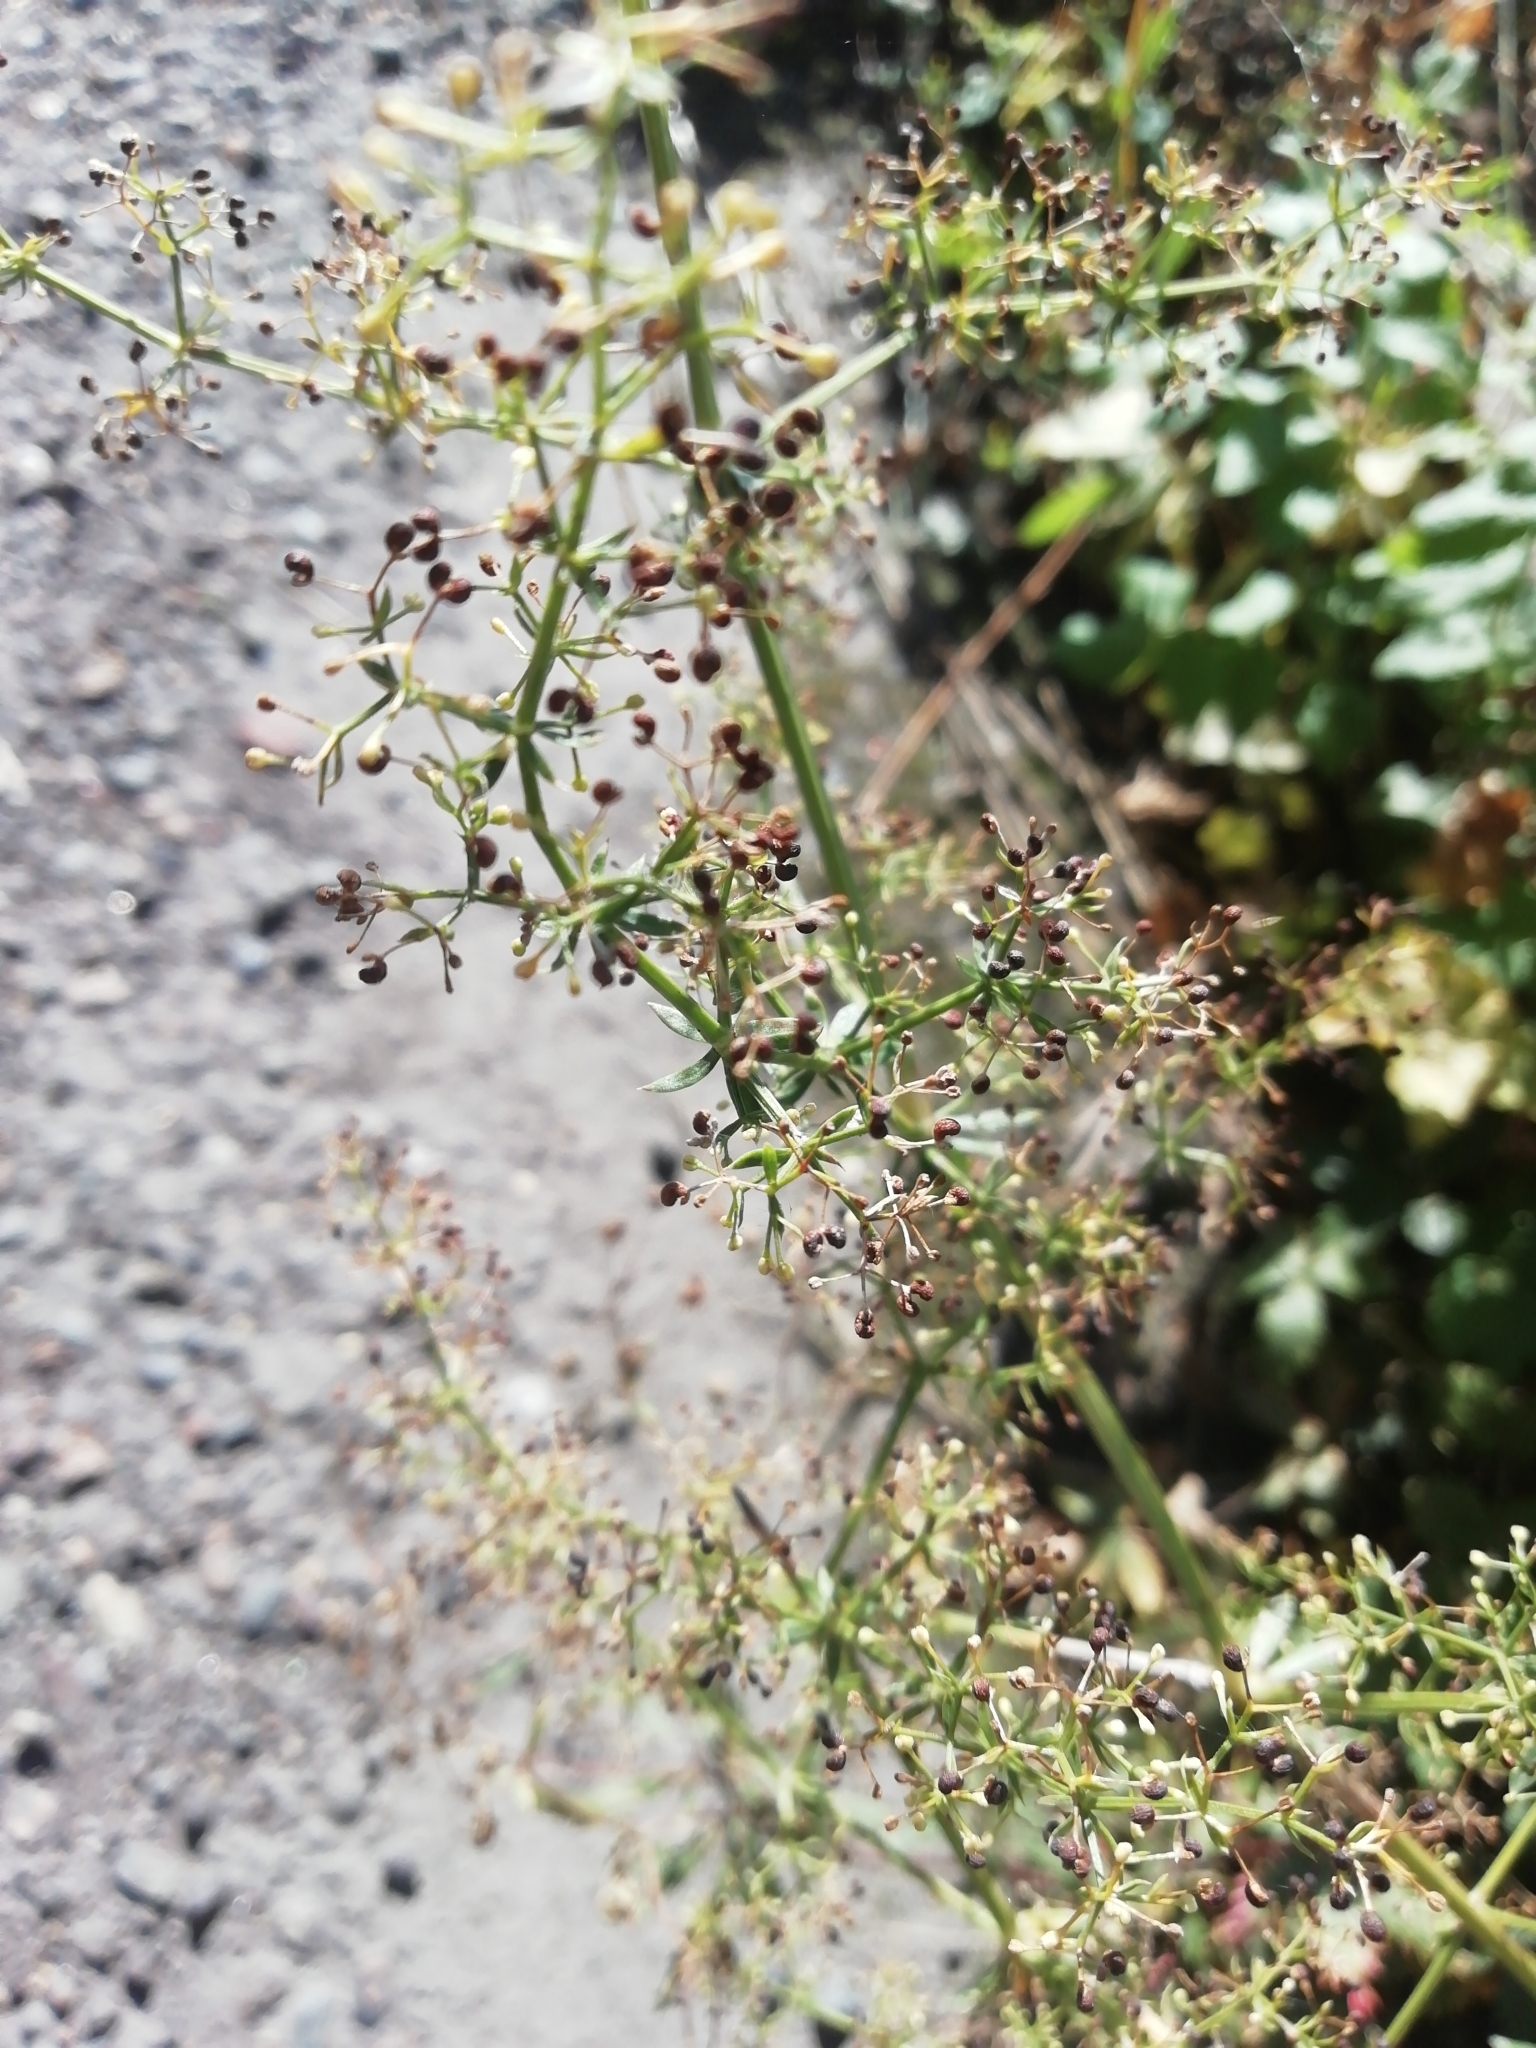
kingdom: Plantae
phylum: Tracheophyta
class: Magnoliopsida
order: Gentianales
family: Rubiaceae
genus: Galium
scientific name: Galium mollugo
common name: Hedge bedstraw
